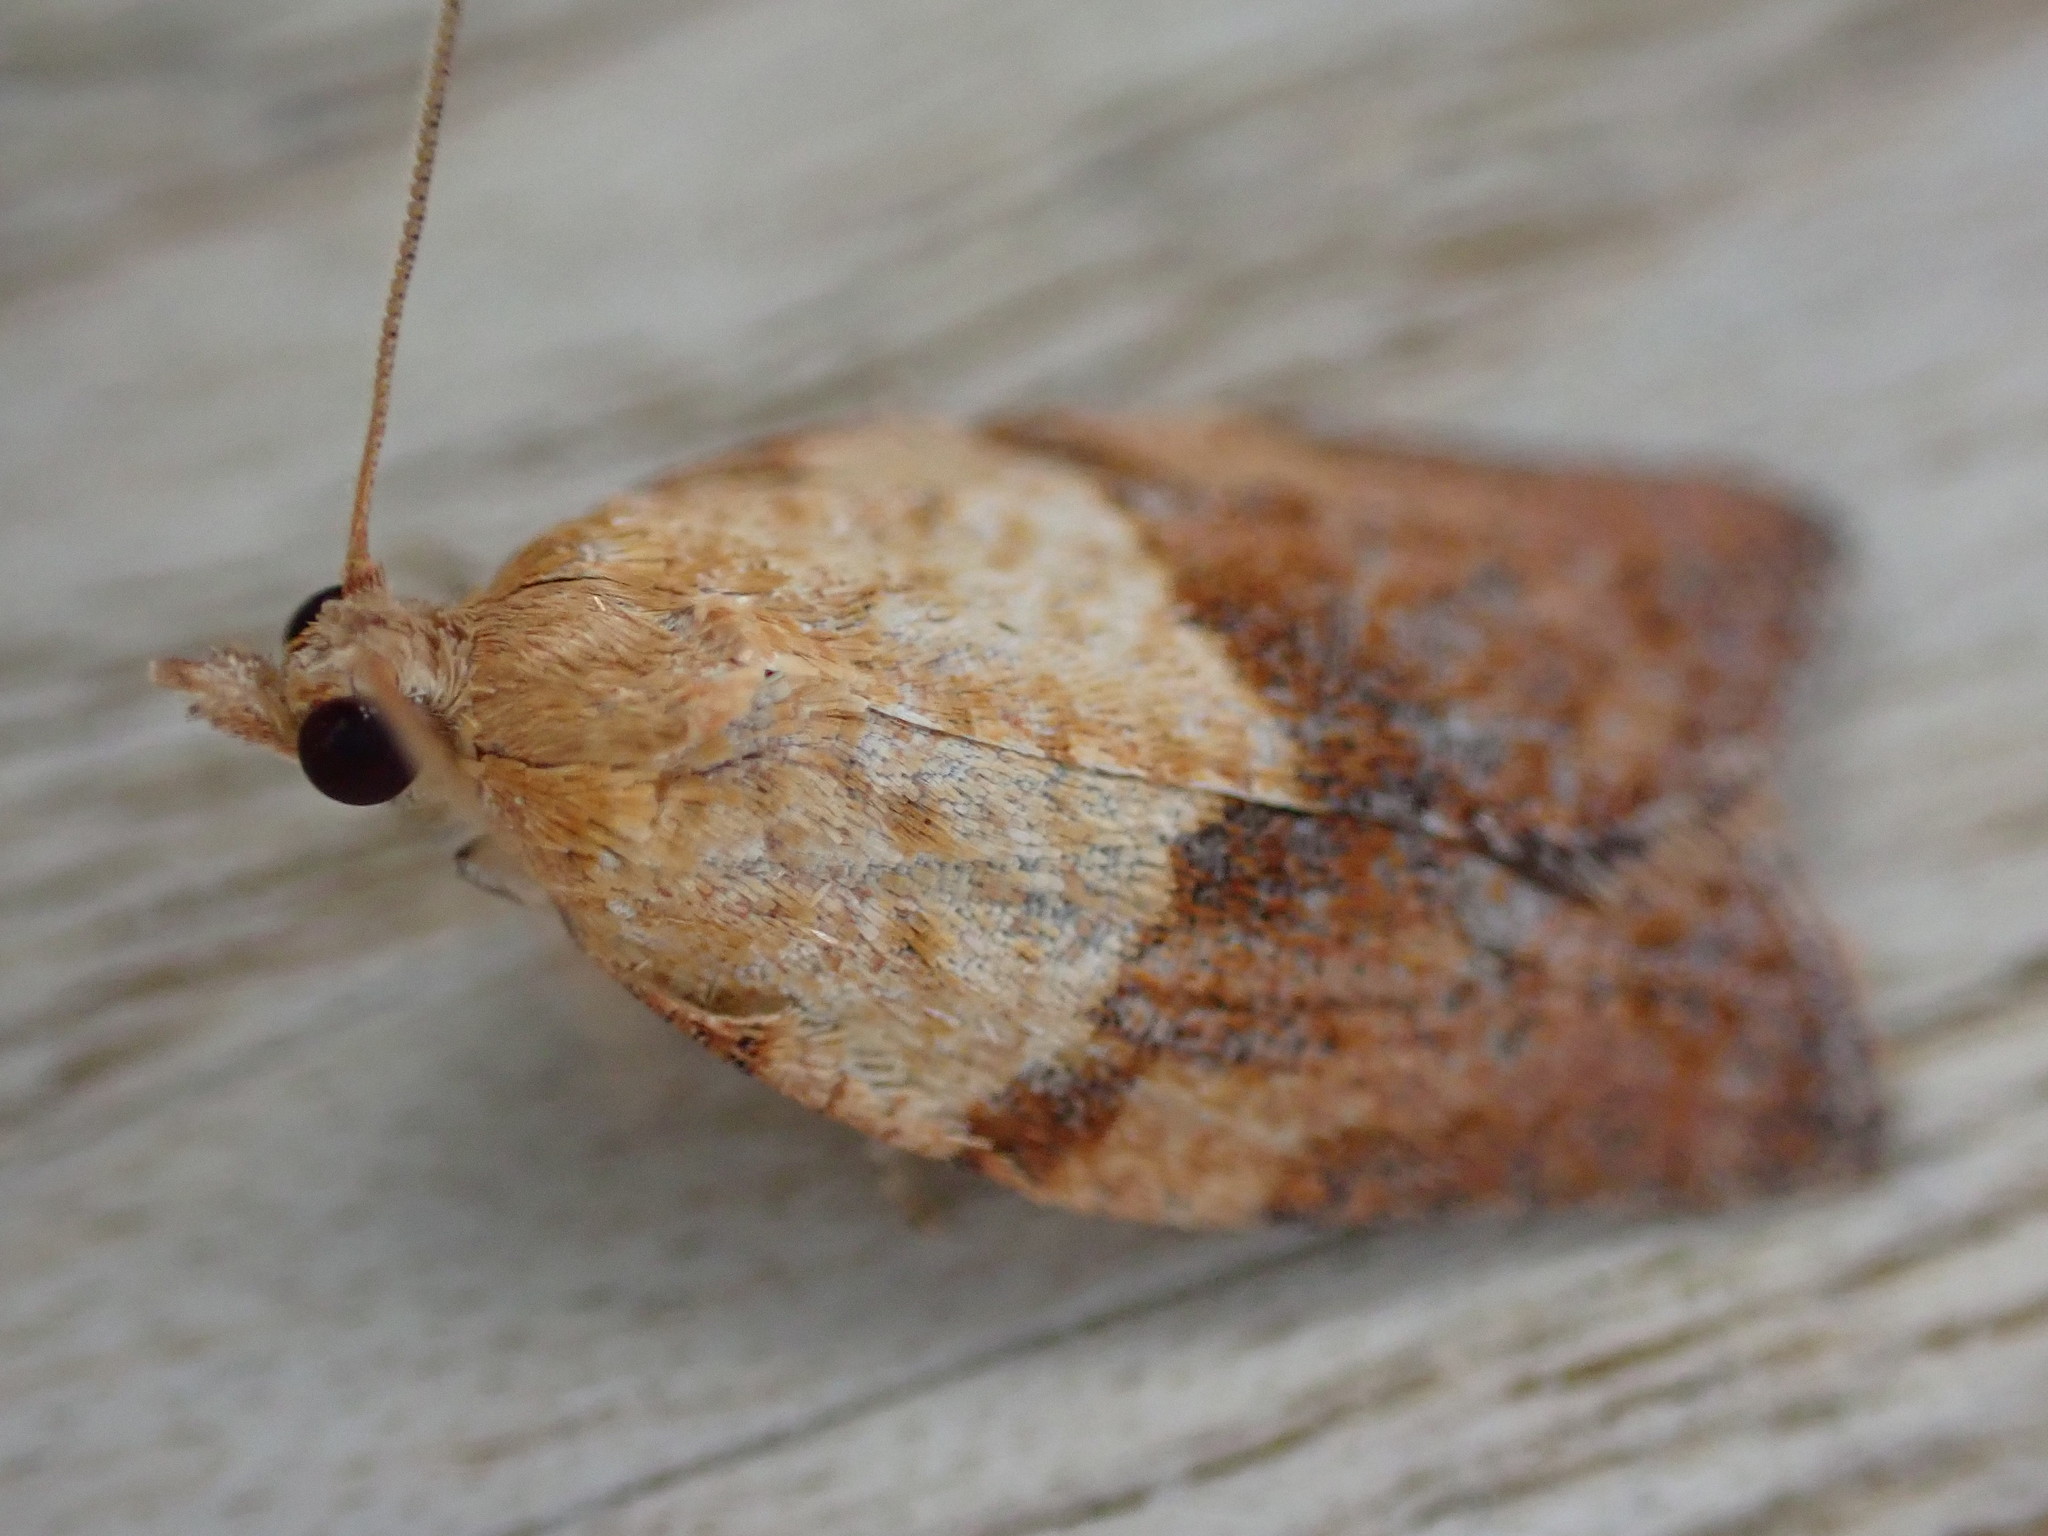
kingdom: Animalia
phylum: Arthropoda
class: Insecta
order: Lepidoptera
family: Tortricidae
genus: Epiphyas
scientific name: Epiphyas postvittana
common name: Light brown apple moth
